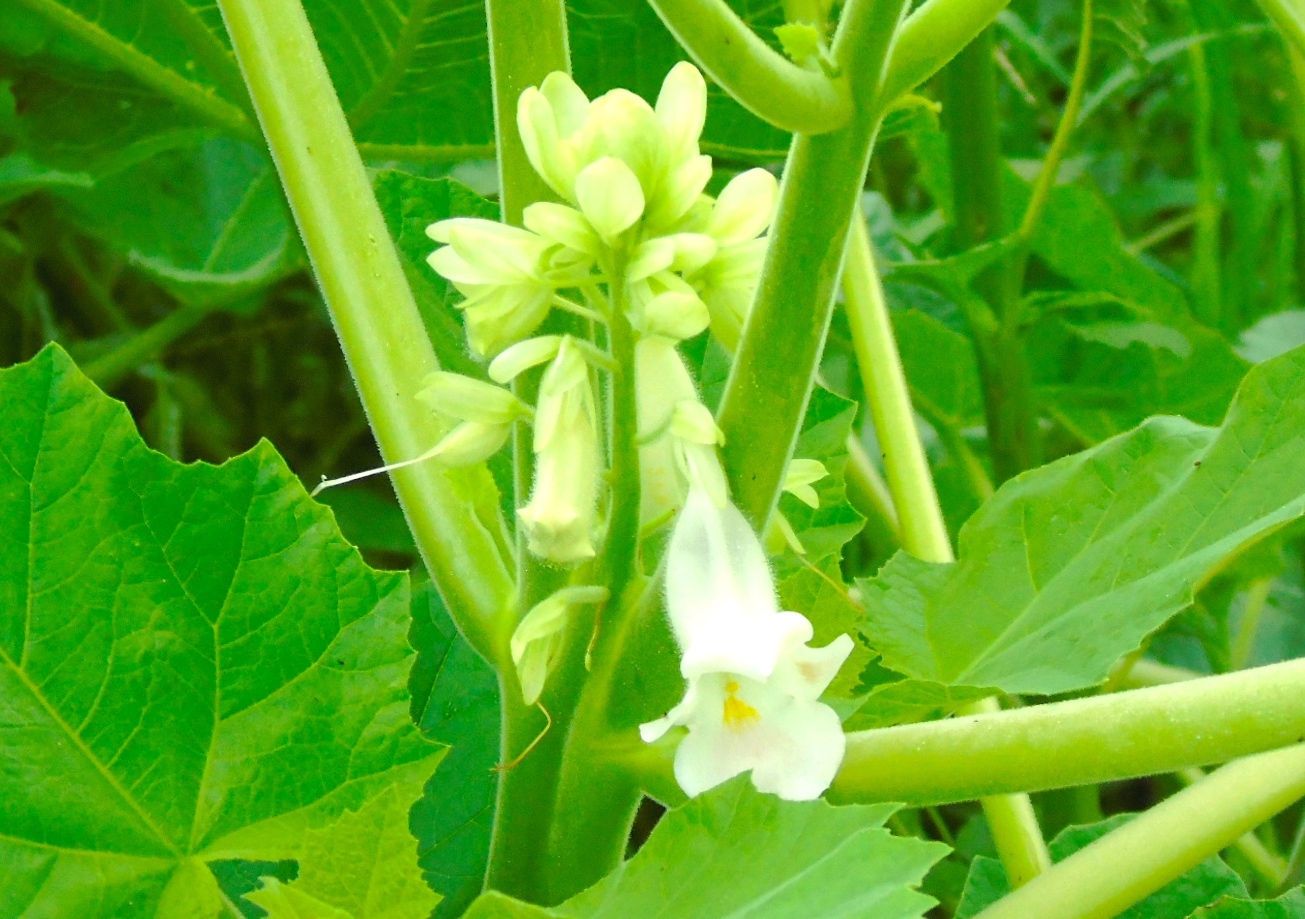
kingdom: Plantae
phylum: Tracheophyta
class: Magnoliopsida
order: Lamiales
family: Martyniaceae
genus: Martynia
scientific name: Martynia annua
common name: Tiger's-claw
